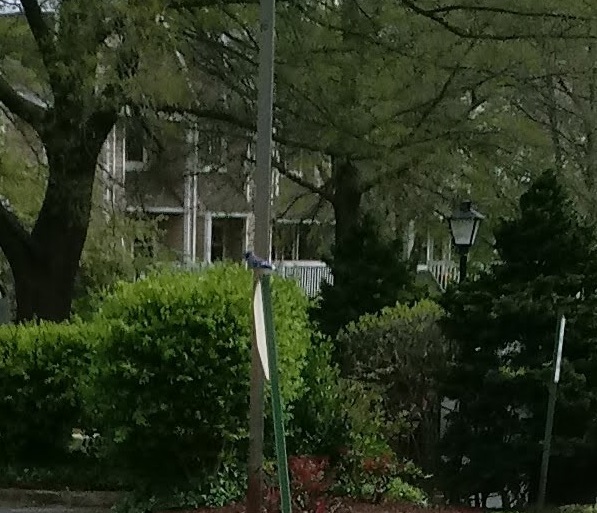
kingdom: Animalia
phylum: Chordata
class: Aves
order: Passeriformes
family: Corvidae
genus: Cyanocitta
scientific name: Cyanocitta cristata
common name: Blue jay
